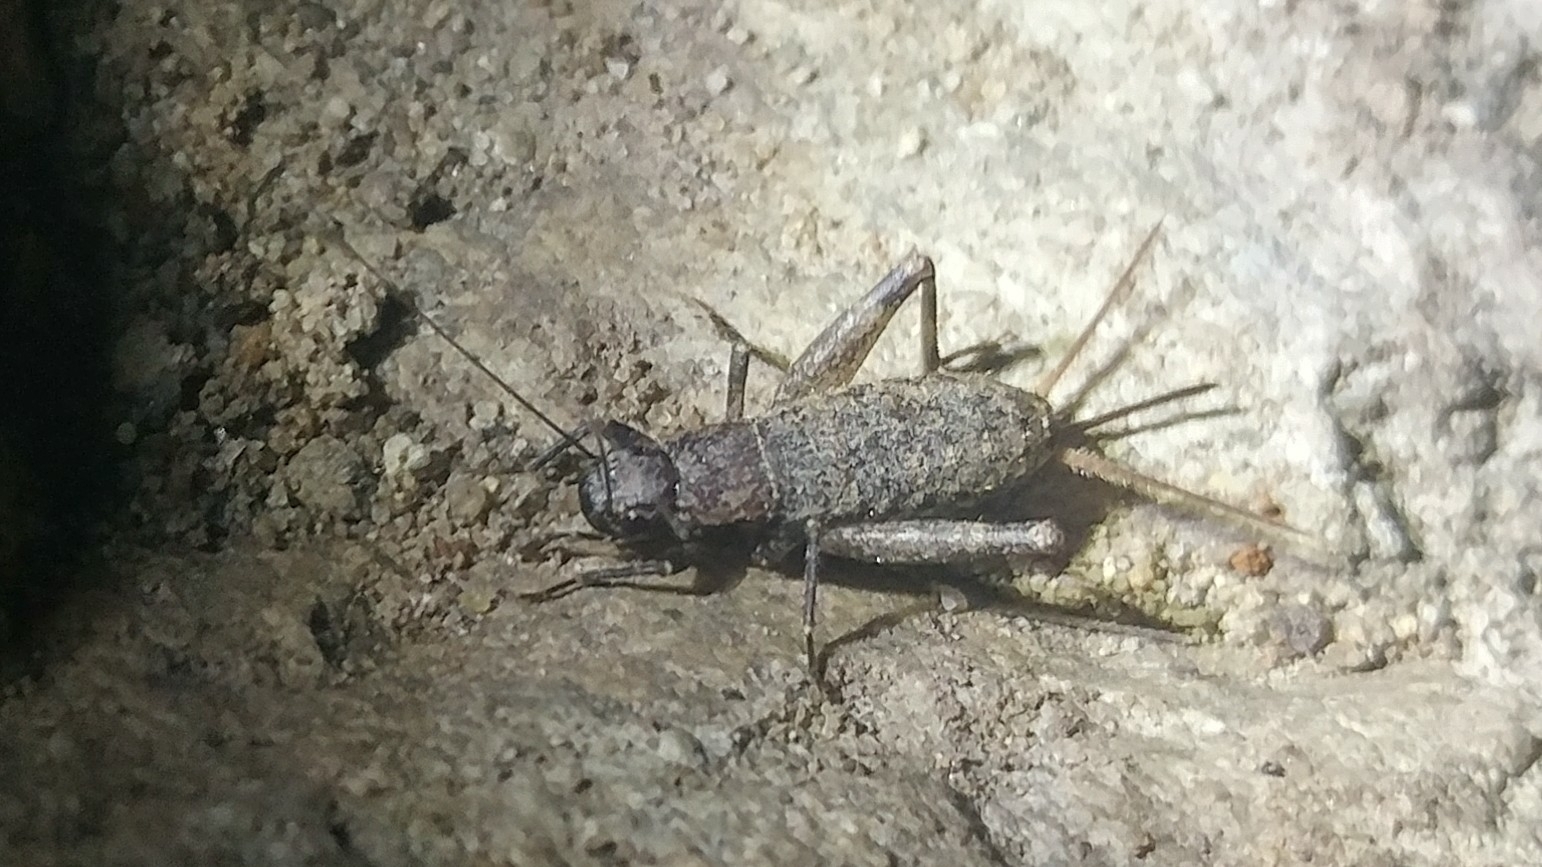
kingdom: Animalia
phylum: Arthropoda
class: Insecta
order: Orthoptera
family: Mogoplistidae
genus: Hoplosphyrum
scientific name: Hoplosphyrum boreale
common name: Long-winged scaly cricket
